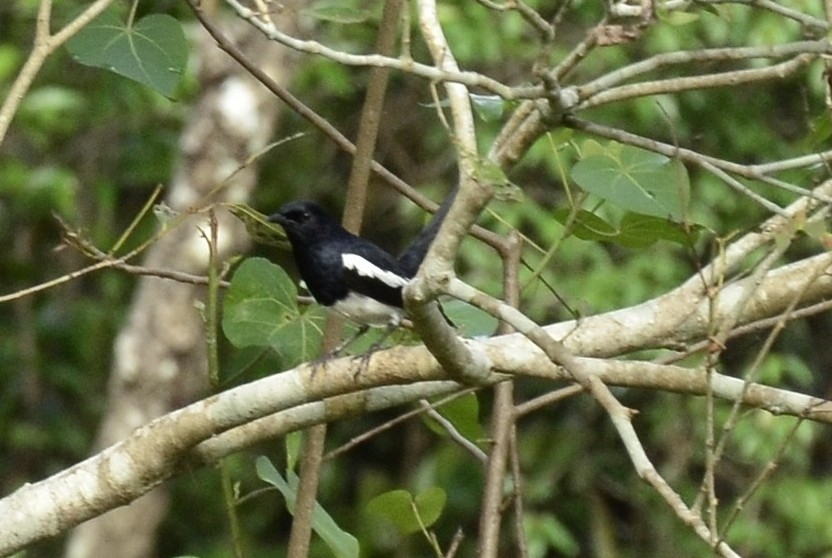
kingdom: Animalia
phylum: Chordata
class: Aves
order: Passeriformes
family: Muscicapidae
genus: Copsychus
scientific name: Copsychus saularis
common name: Oriental magpie-robin
